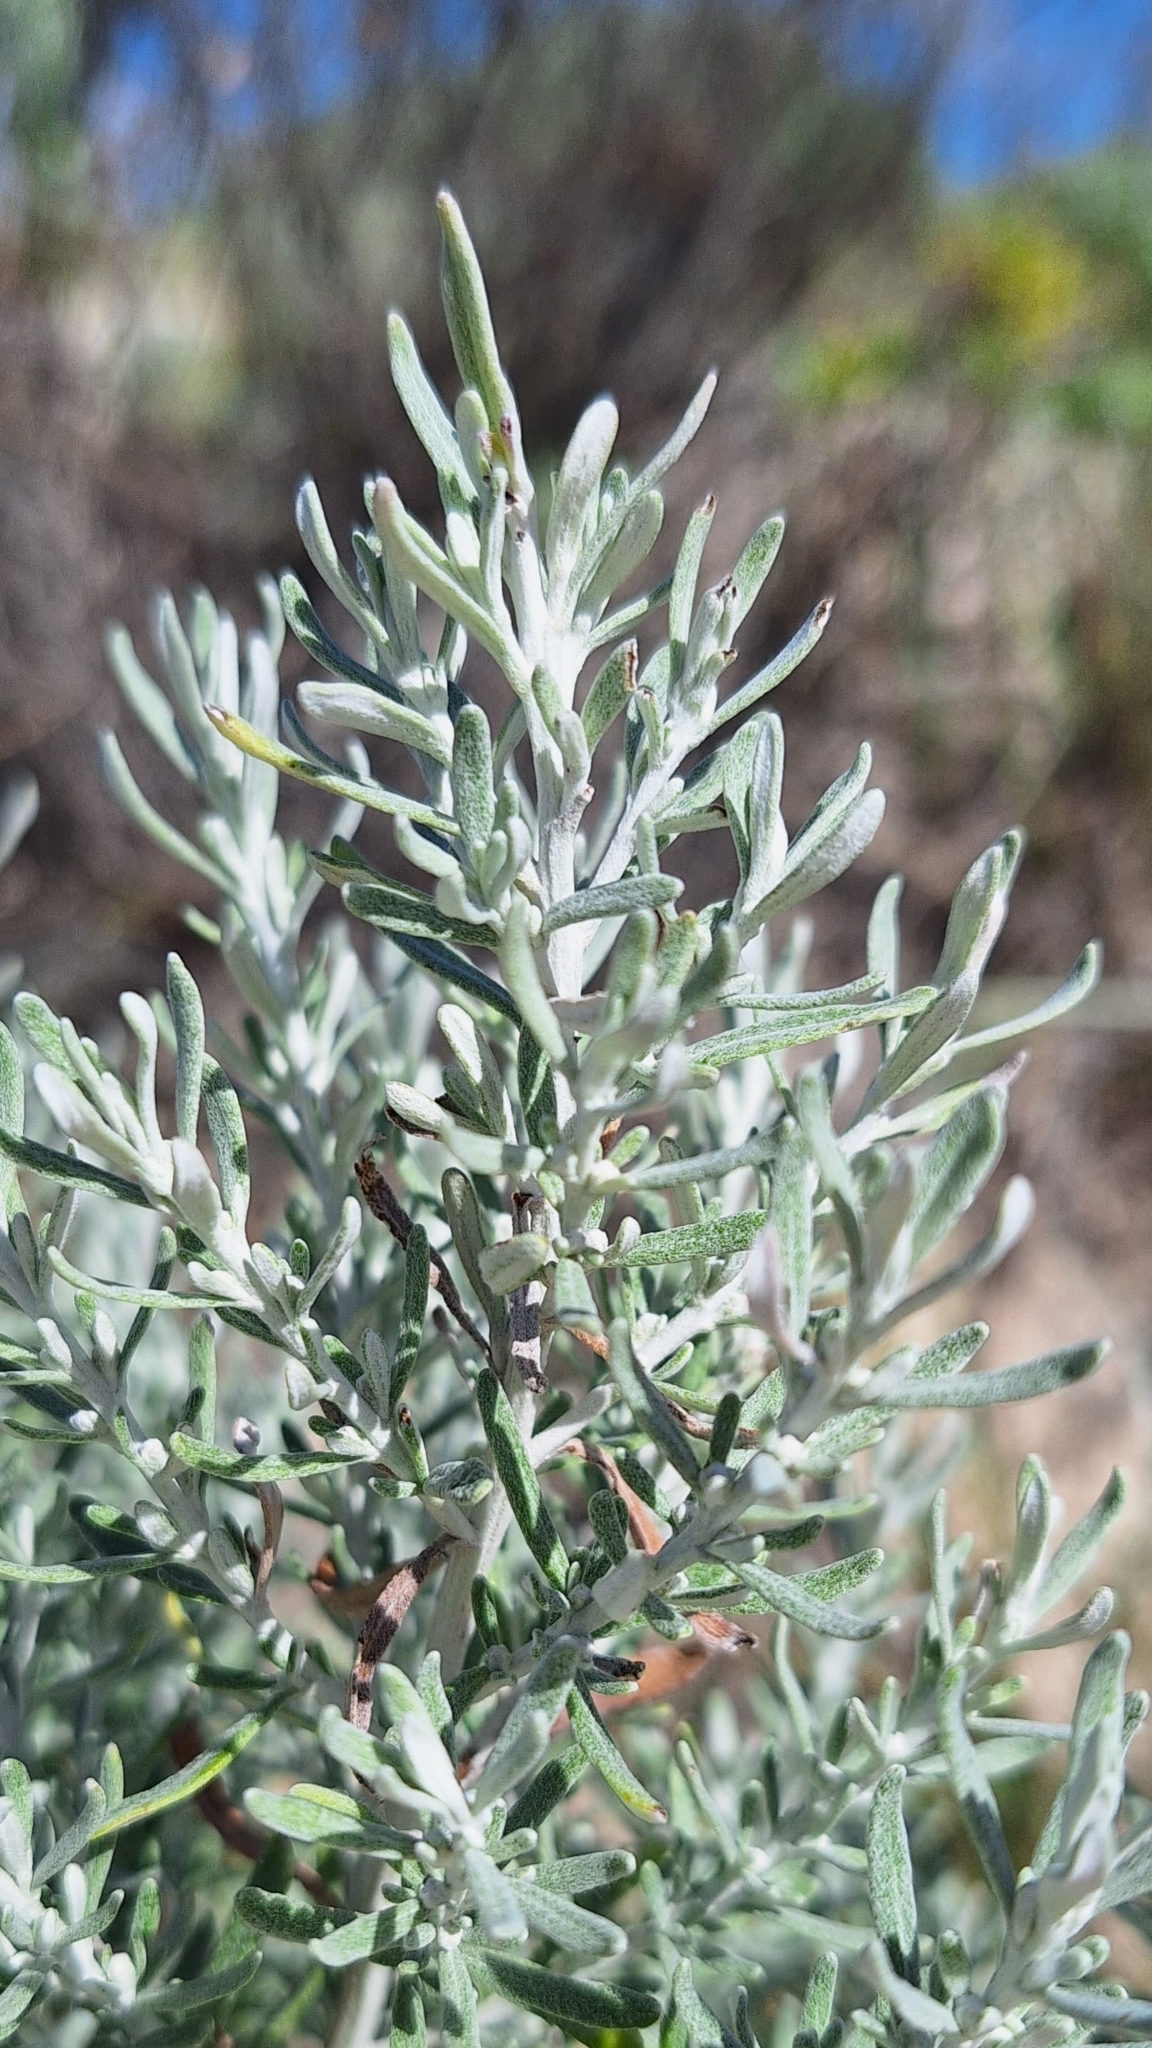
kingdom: Plantae
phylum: Tracheophyta
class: Magnoliopsida
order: Asterales
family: Asteraceae
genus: Olearia
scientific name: Olearia axillaris
